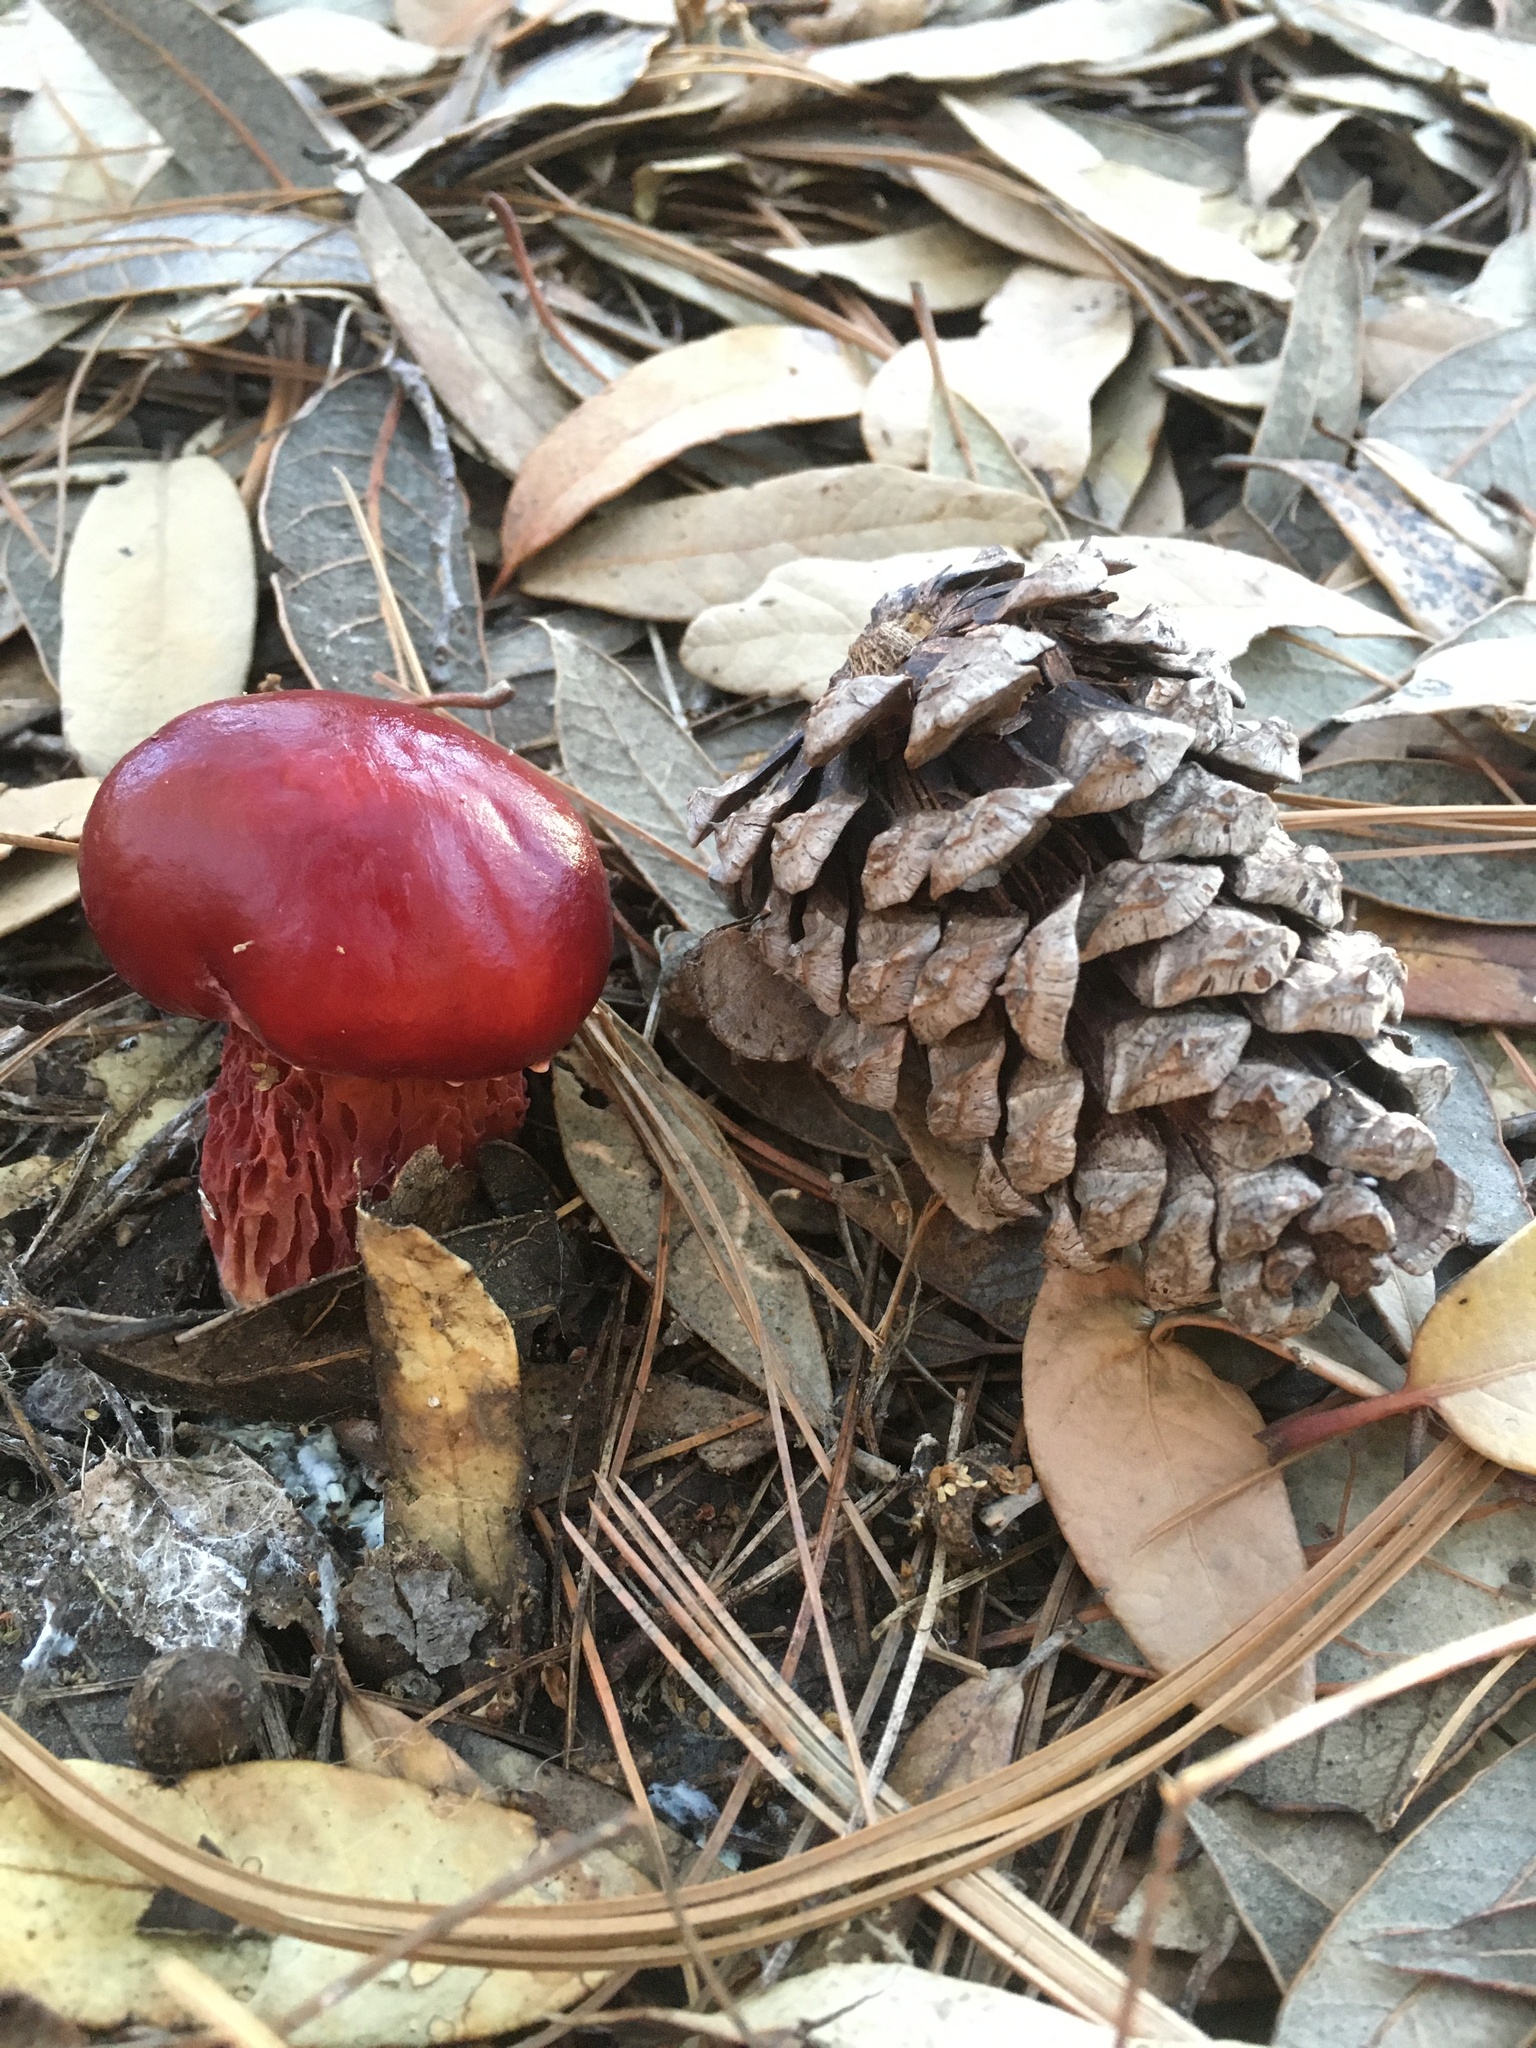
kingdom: Fungi
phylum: Basidiomycota
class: Agaricomycetes
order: Boletales
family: Boletaceae
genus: Butyriboletus
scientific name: Butyriboletus frostii
